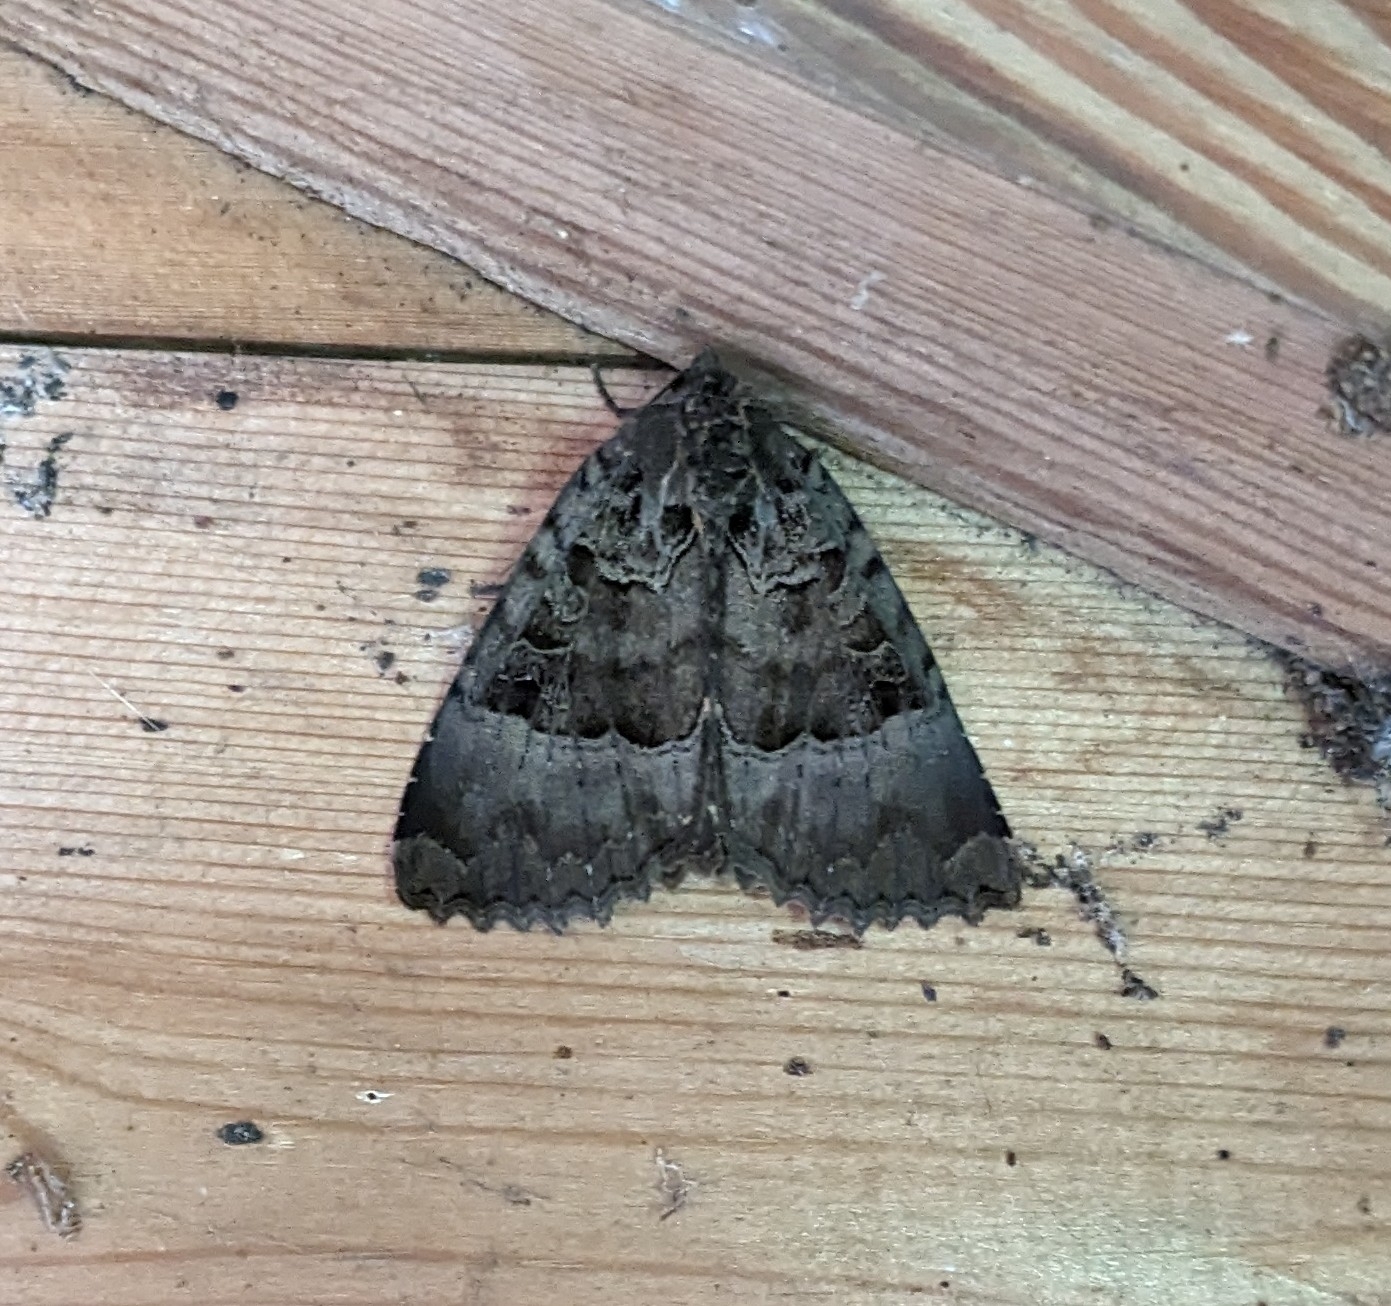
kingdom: Animalia
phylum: Arthropoda
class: Insecta
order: Lepidoptera
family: Noctuidae
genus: Mormo
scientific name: Mormo maura
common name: Old lady
